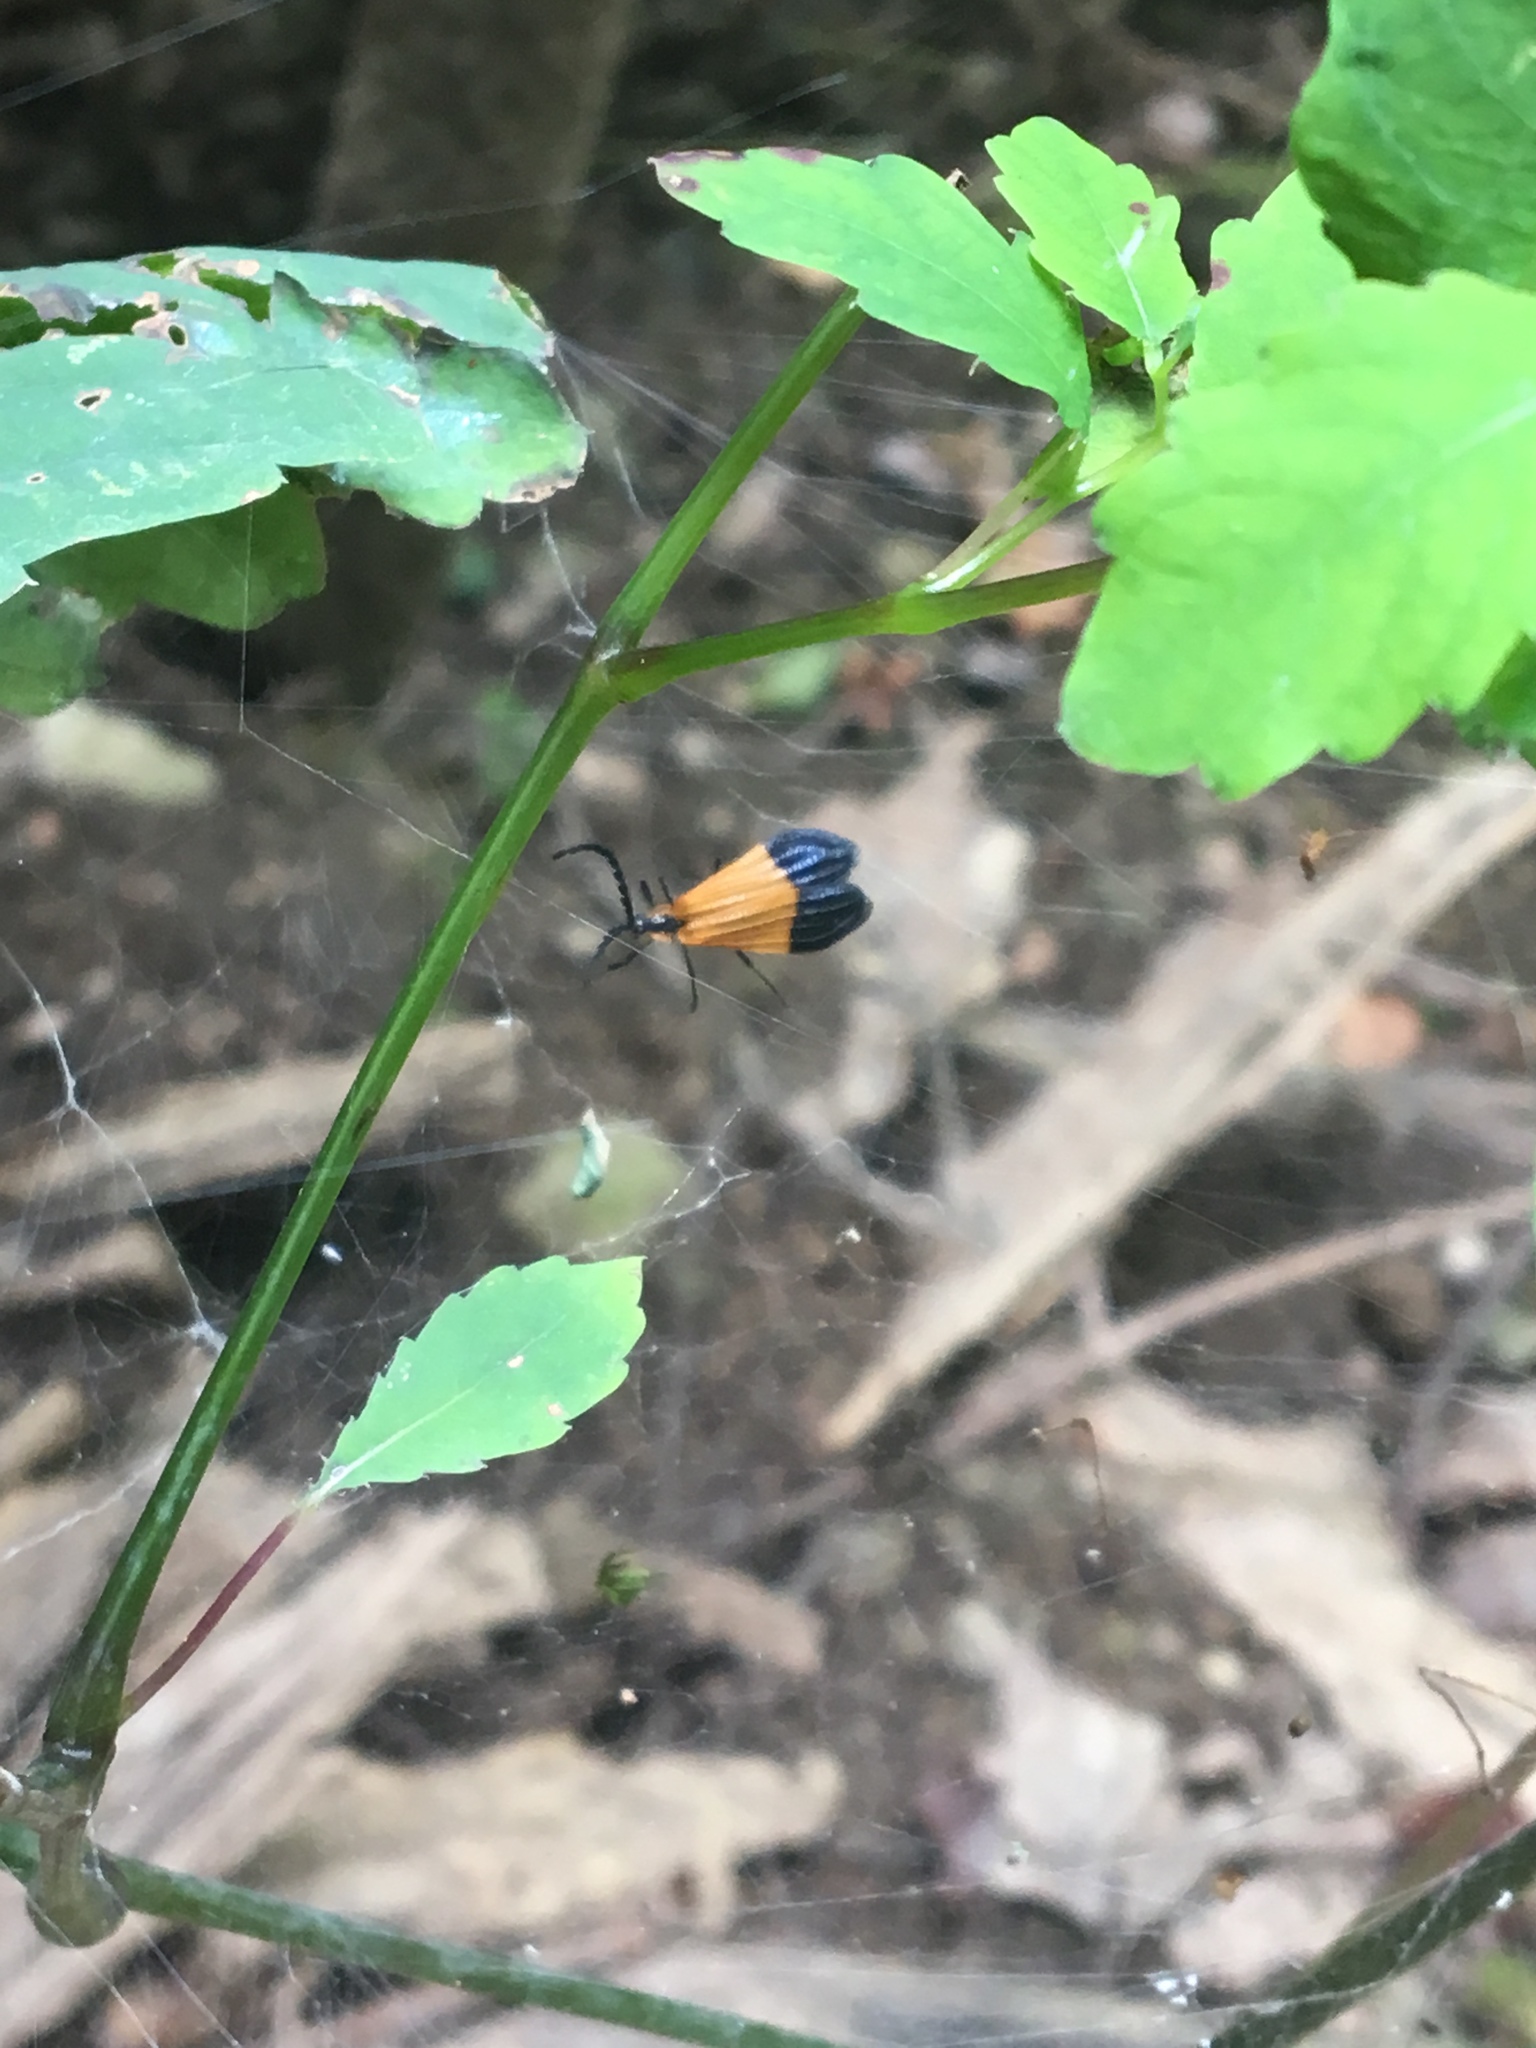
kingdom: Animalia
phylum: Arthropoda
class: Insecta
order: Coleoptera
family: Lycidae
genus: Calopteron
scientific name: Calopteron terminale
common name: End band net-winged beetle
